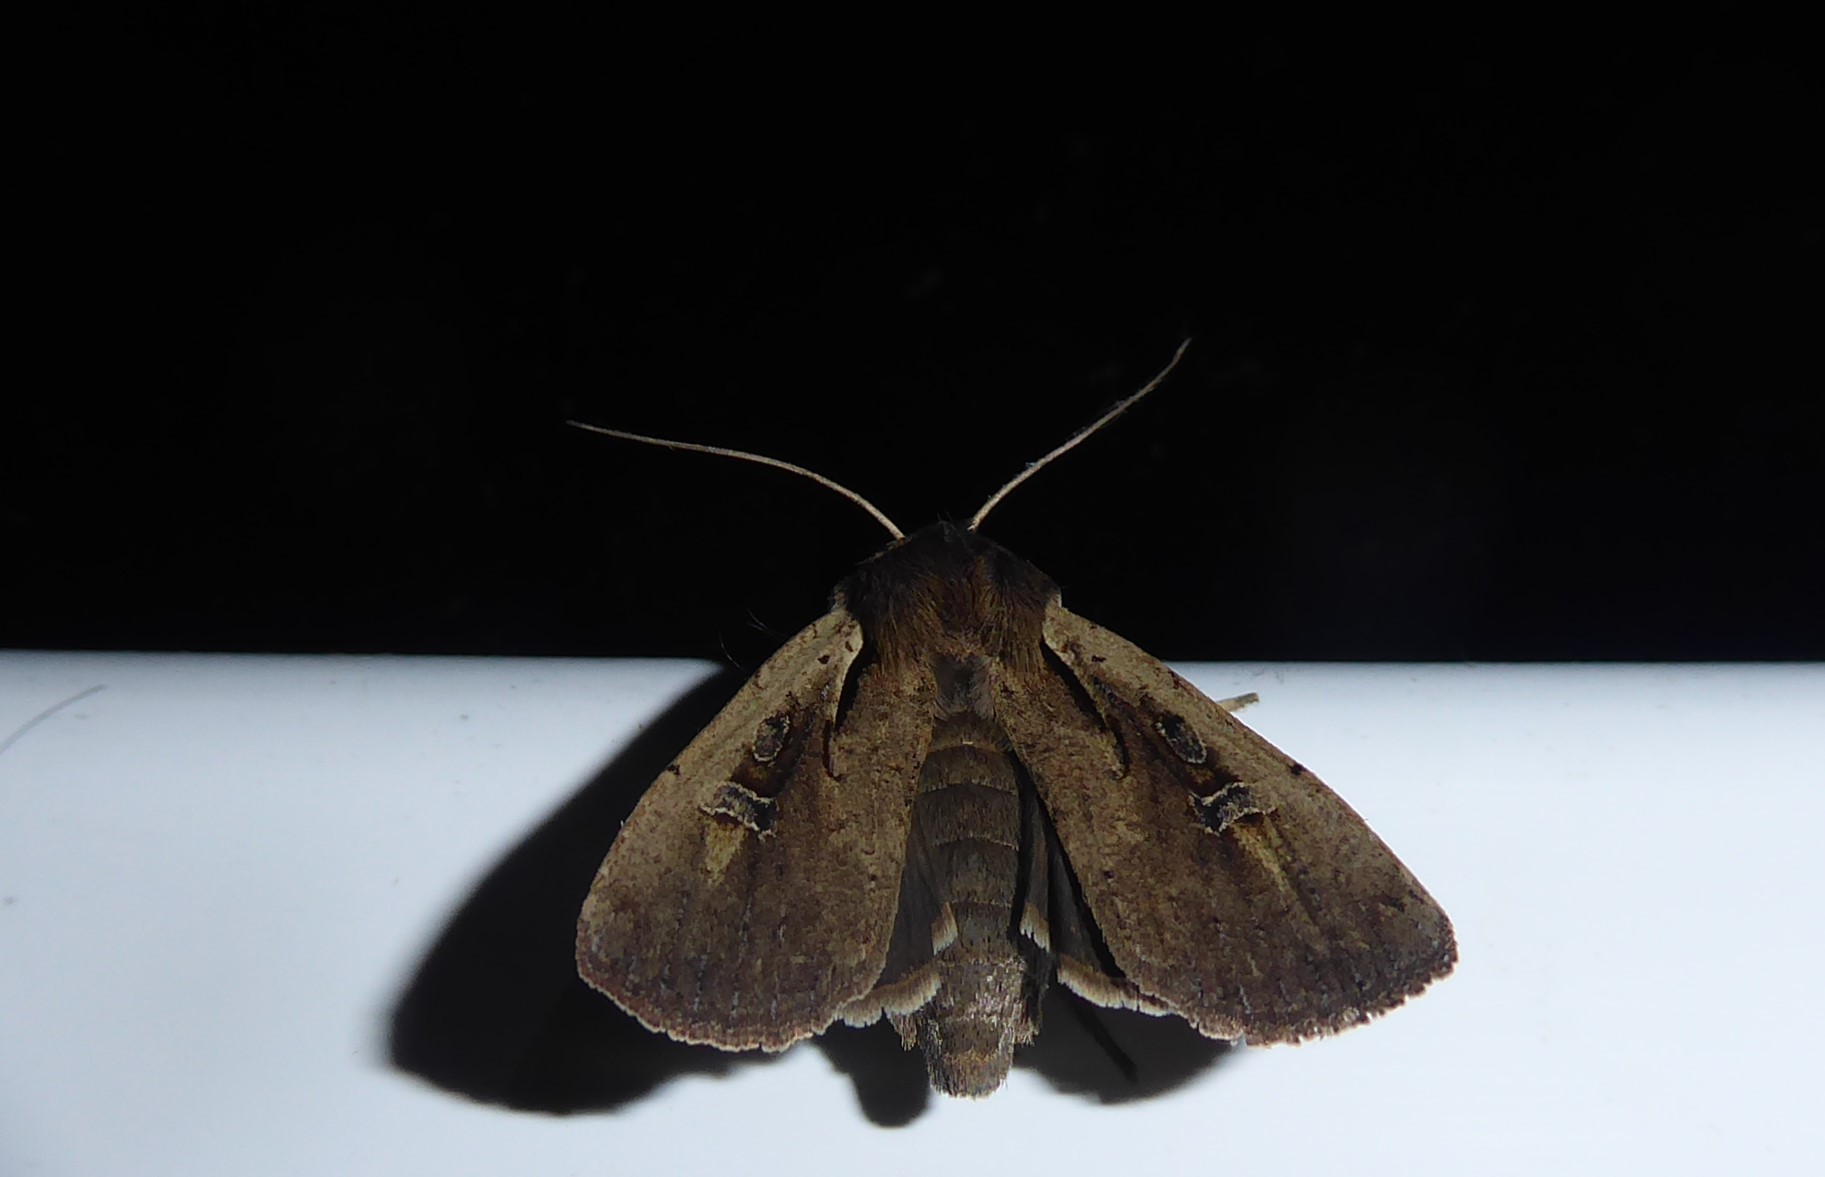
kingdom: Animalia
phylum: Arthropoda
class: Insecta
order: Lepidoptera
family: Noctuidae
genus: Ichneutica
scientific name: Ichneutica atristriga
